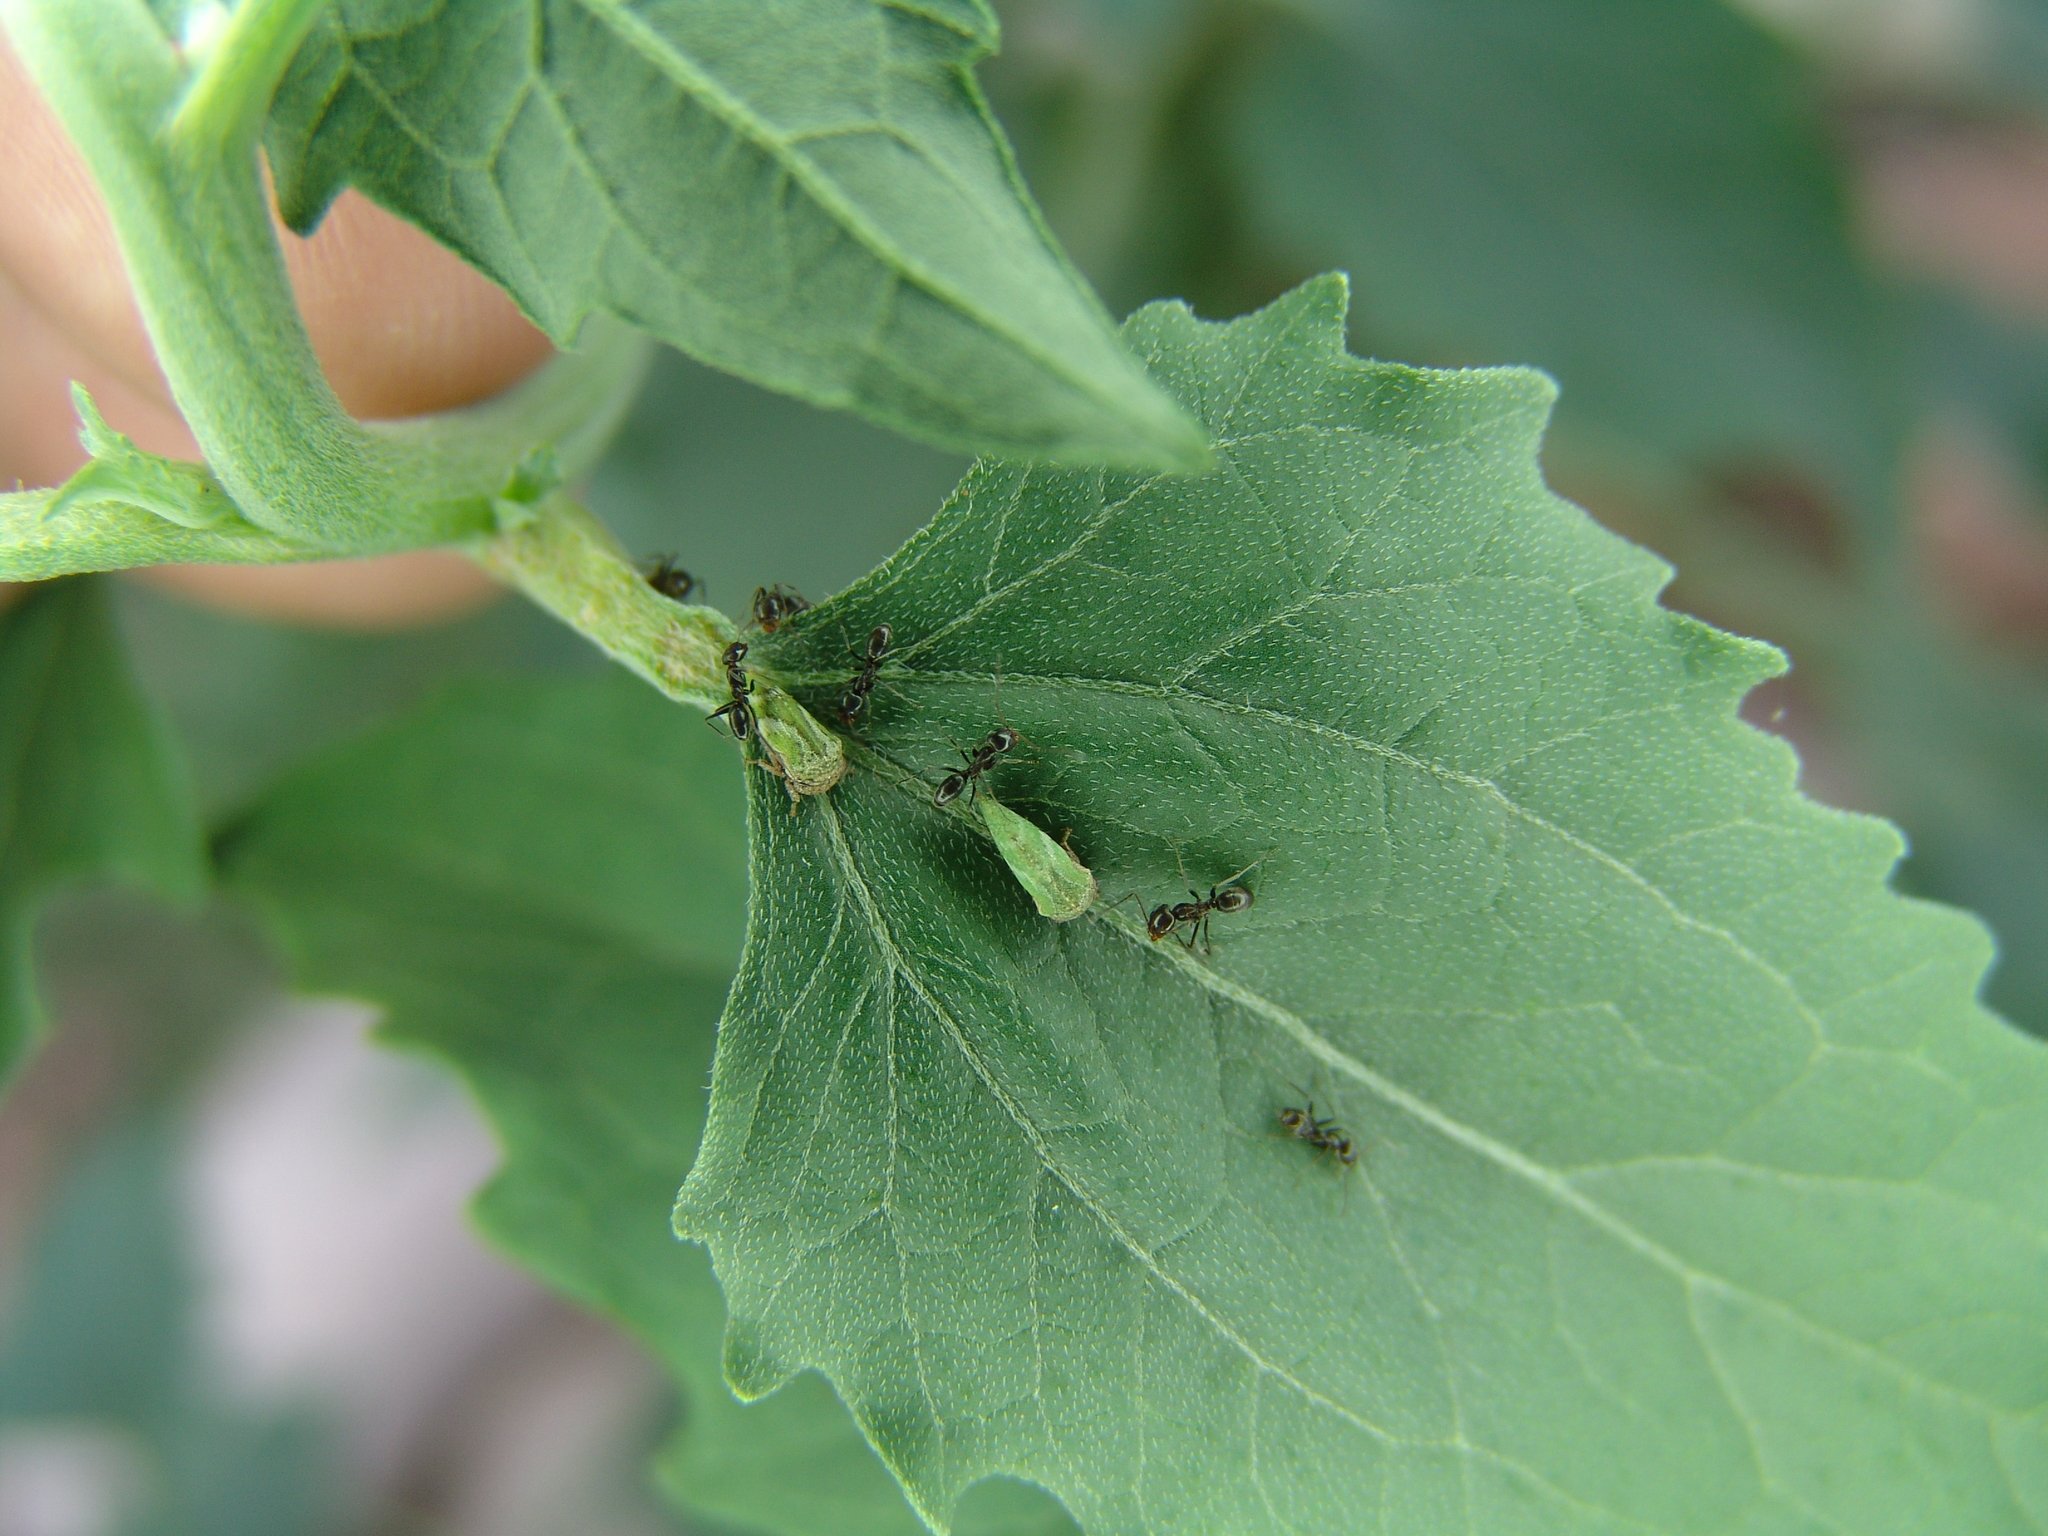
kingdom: Animalia
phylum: Arthropoda
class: Insecta
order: Hymenoptera
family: Formicidae
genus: Dorymyrmex
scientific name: Dorymyrmex insanus
